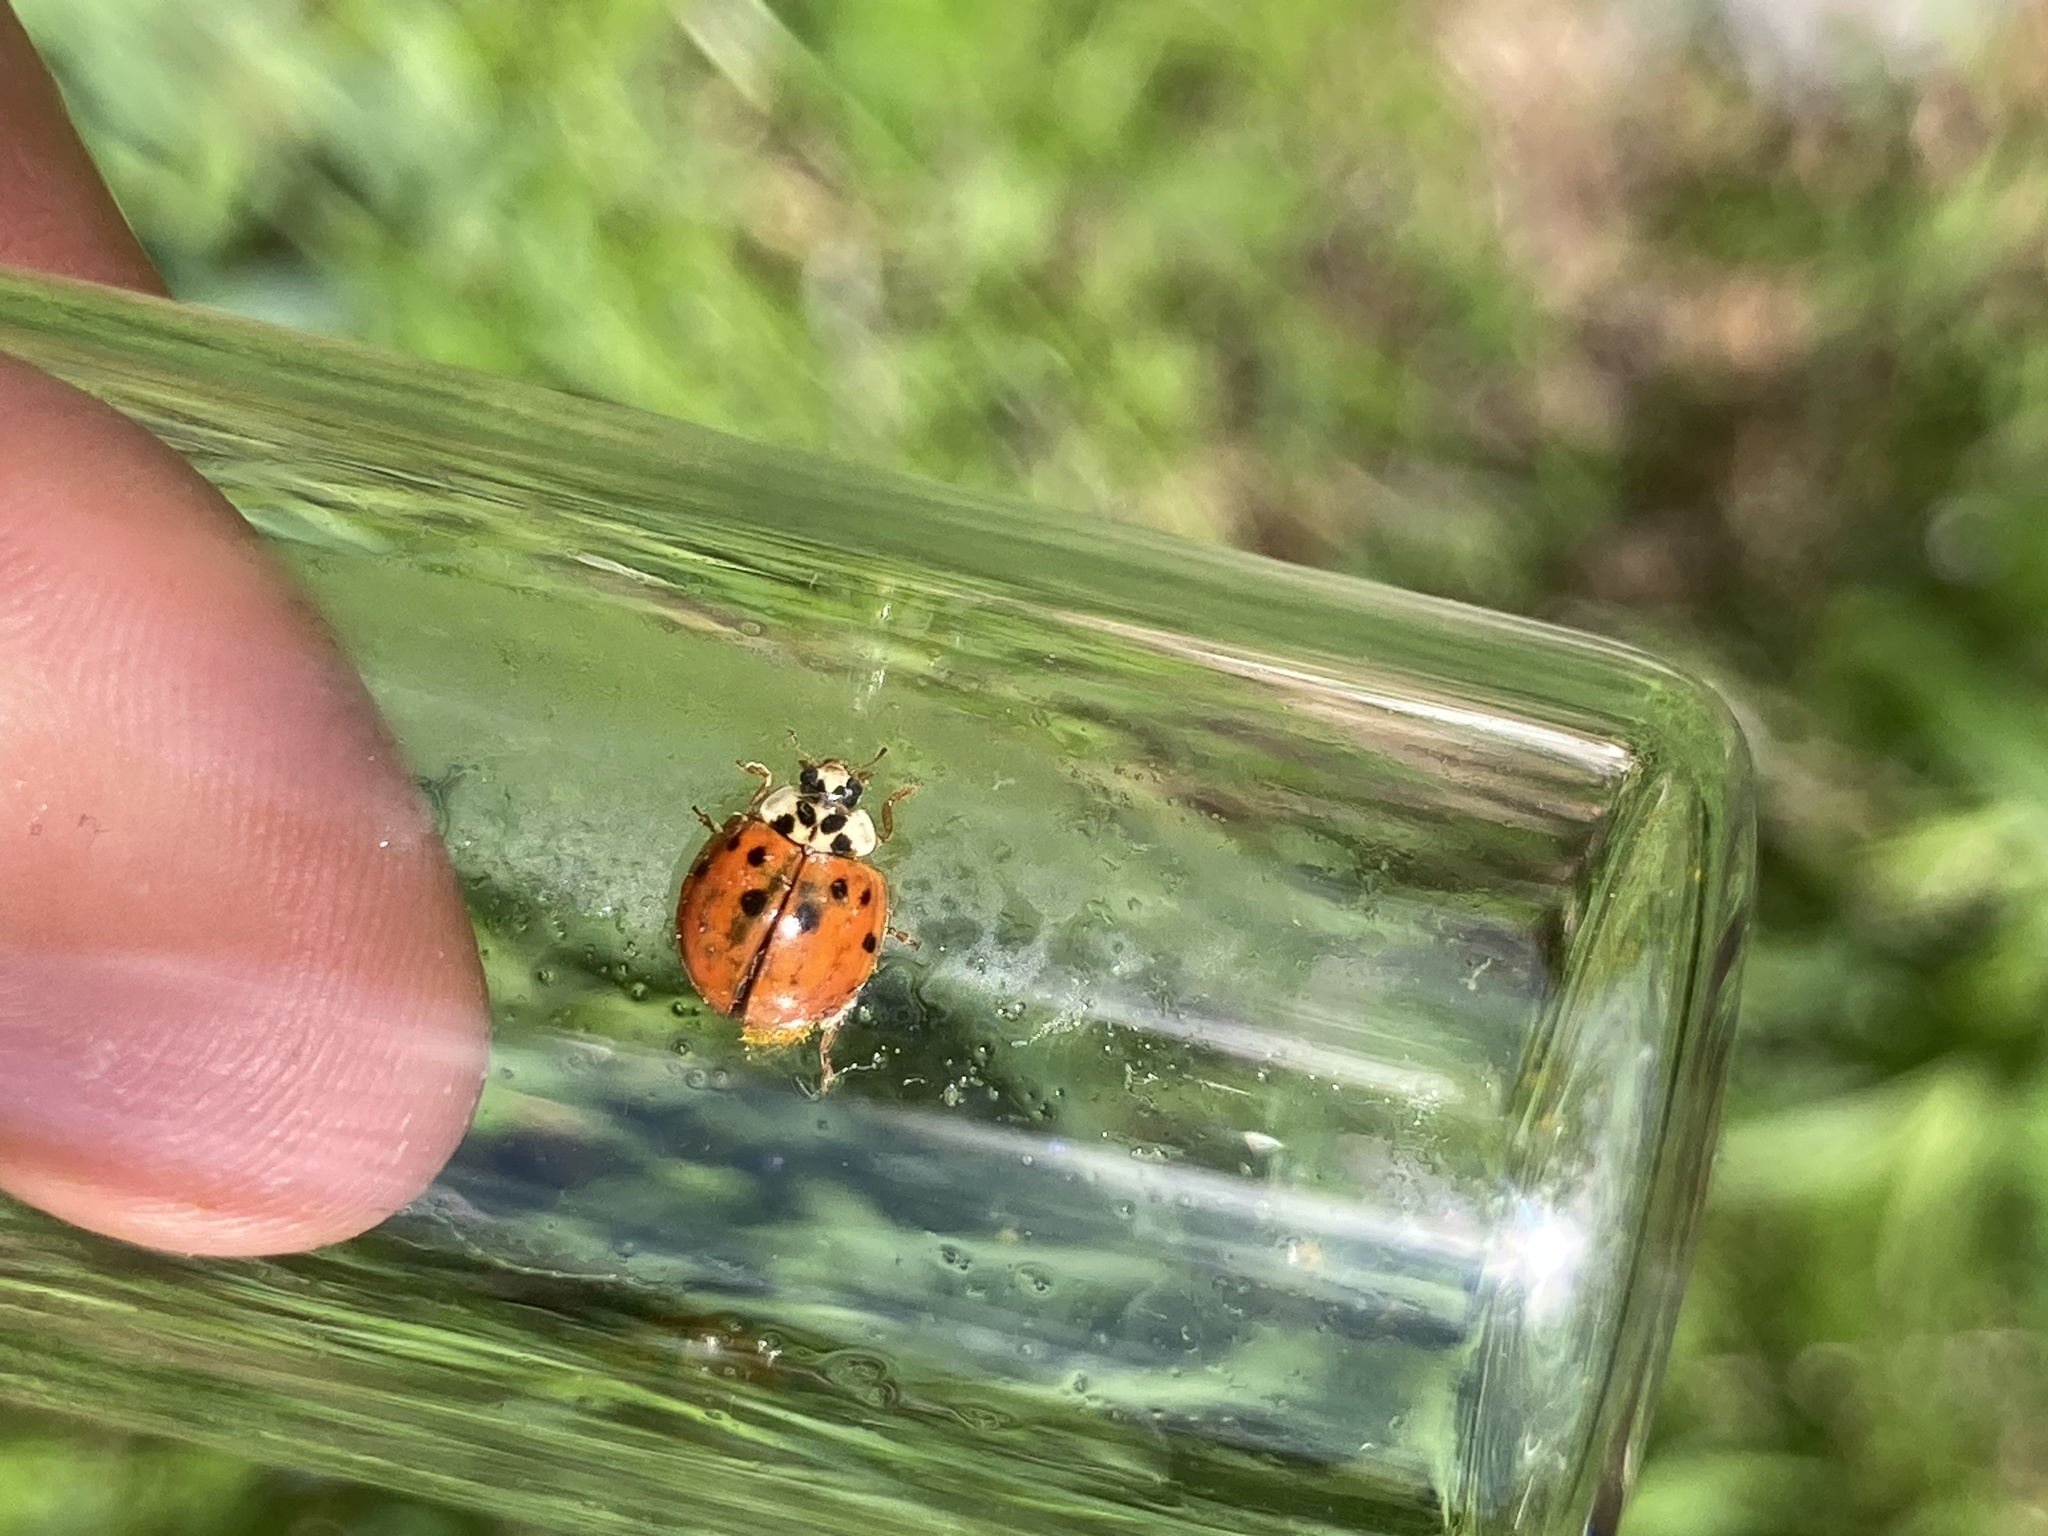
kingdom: Animalia
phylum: Arthropoda
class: Insecta
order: Coleoptera
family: Coccinellidae
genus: Harmonia
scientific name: Harmonia axyridis
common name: Harlequin ladybird
